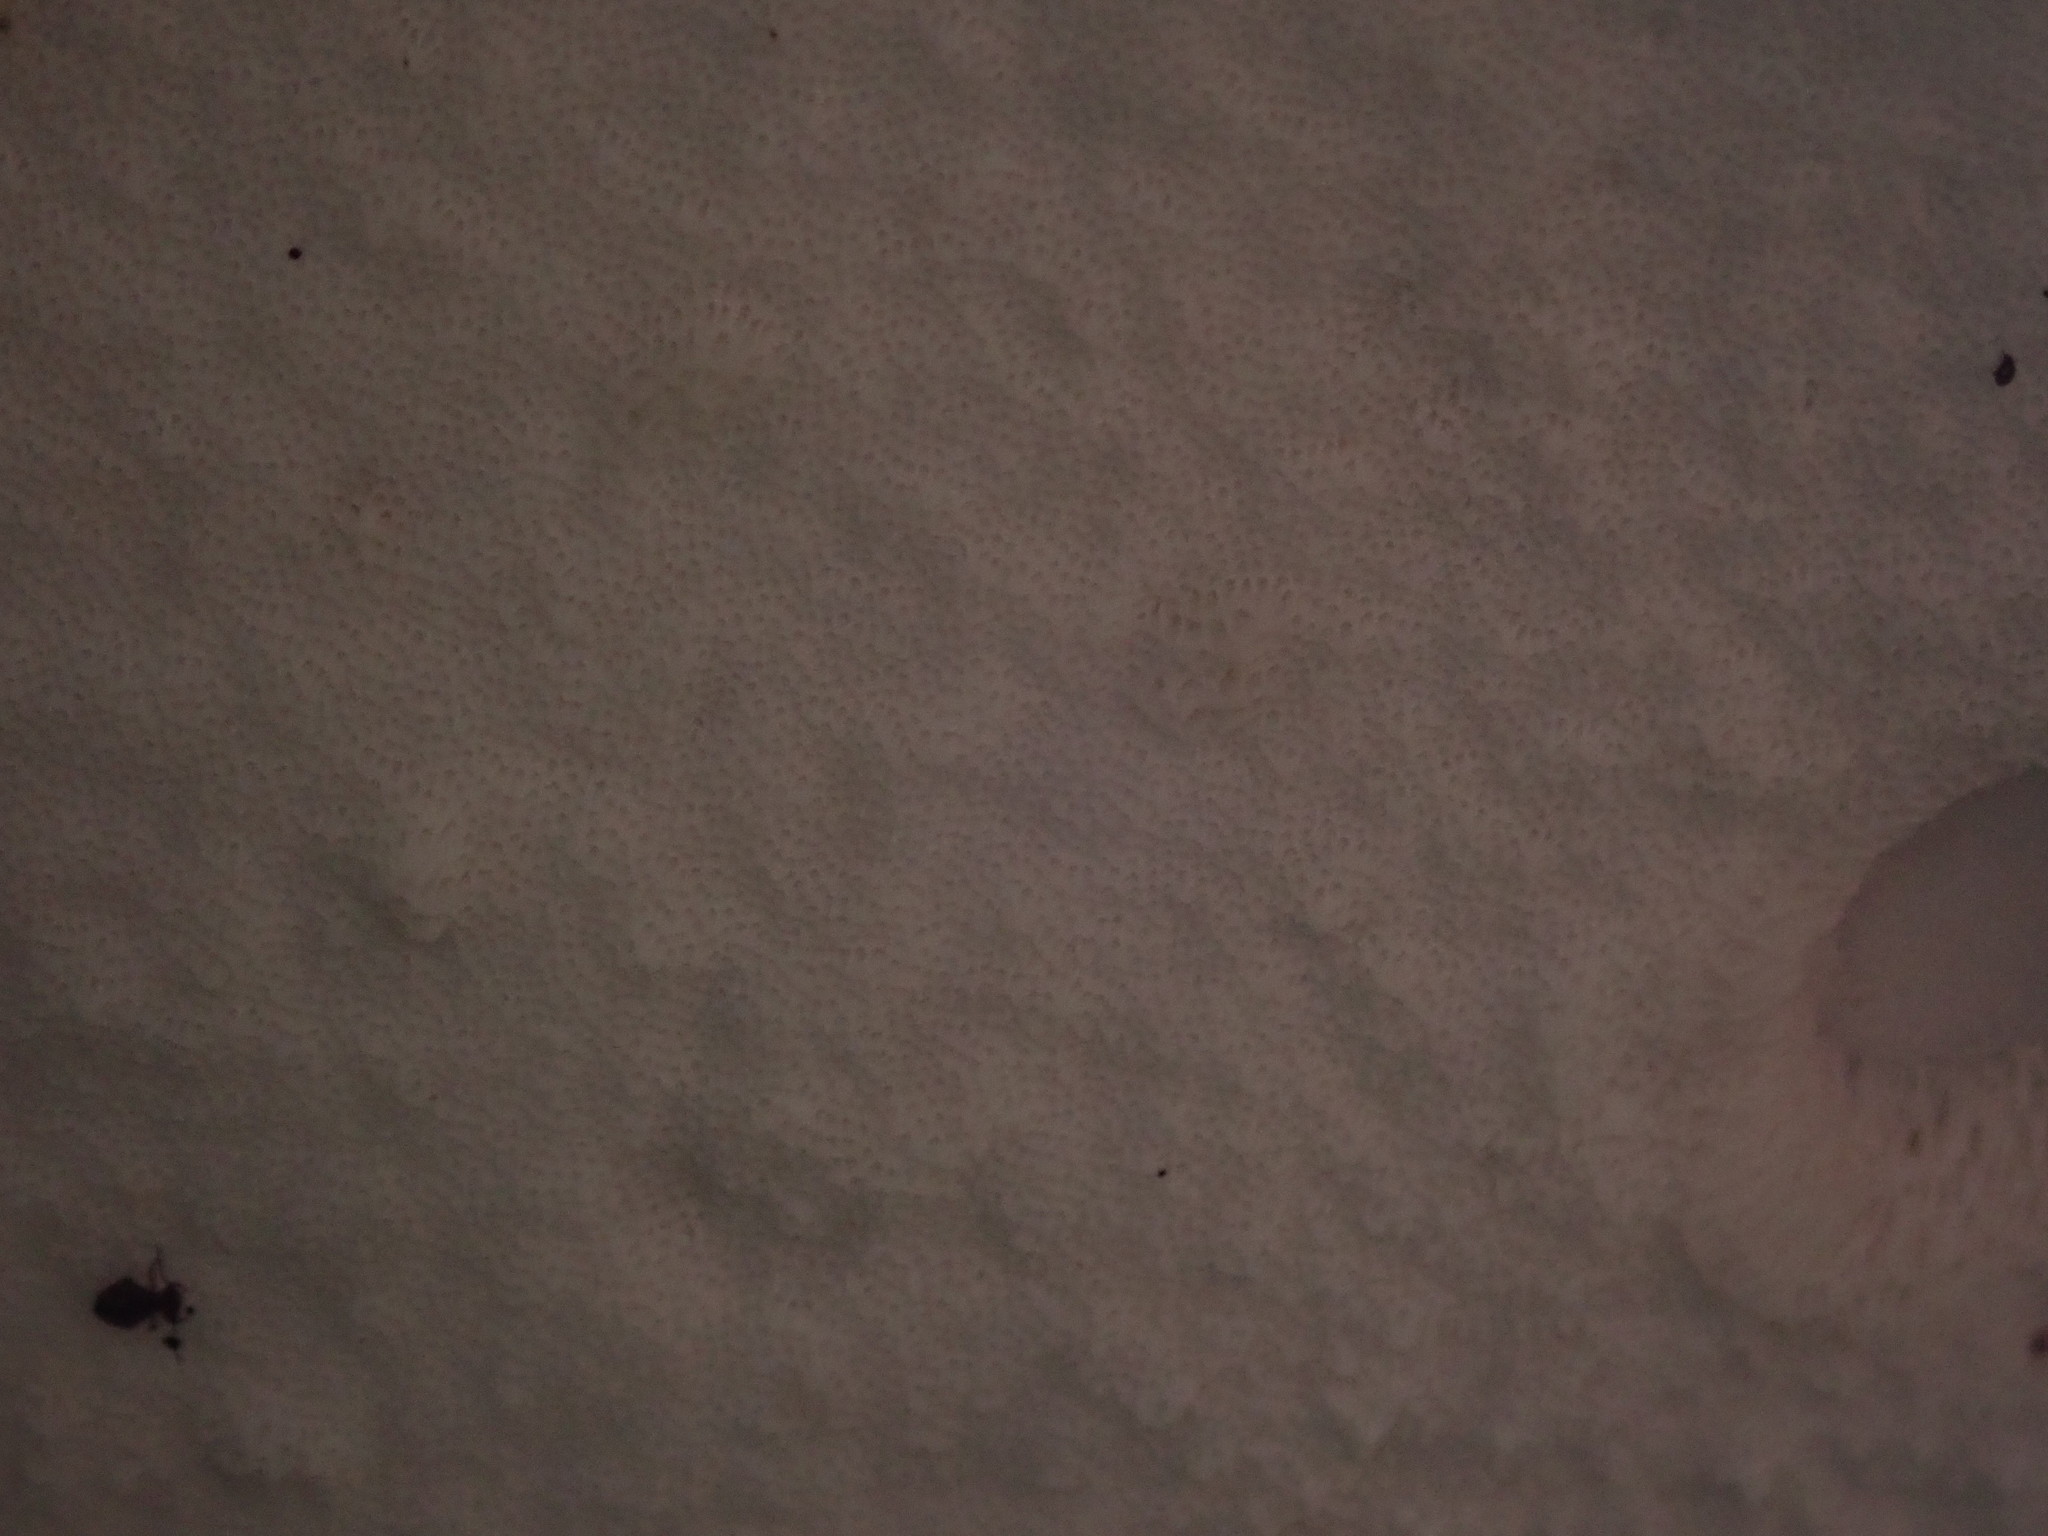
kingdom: Fungi
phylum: Basidiomycota
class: Agaricomycetes
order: Polyporales
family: Fomitopsidaceae
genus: Fomitopsis
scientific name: Fomitopsis betulina
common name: Birch polypore
